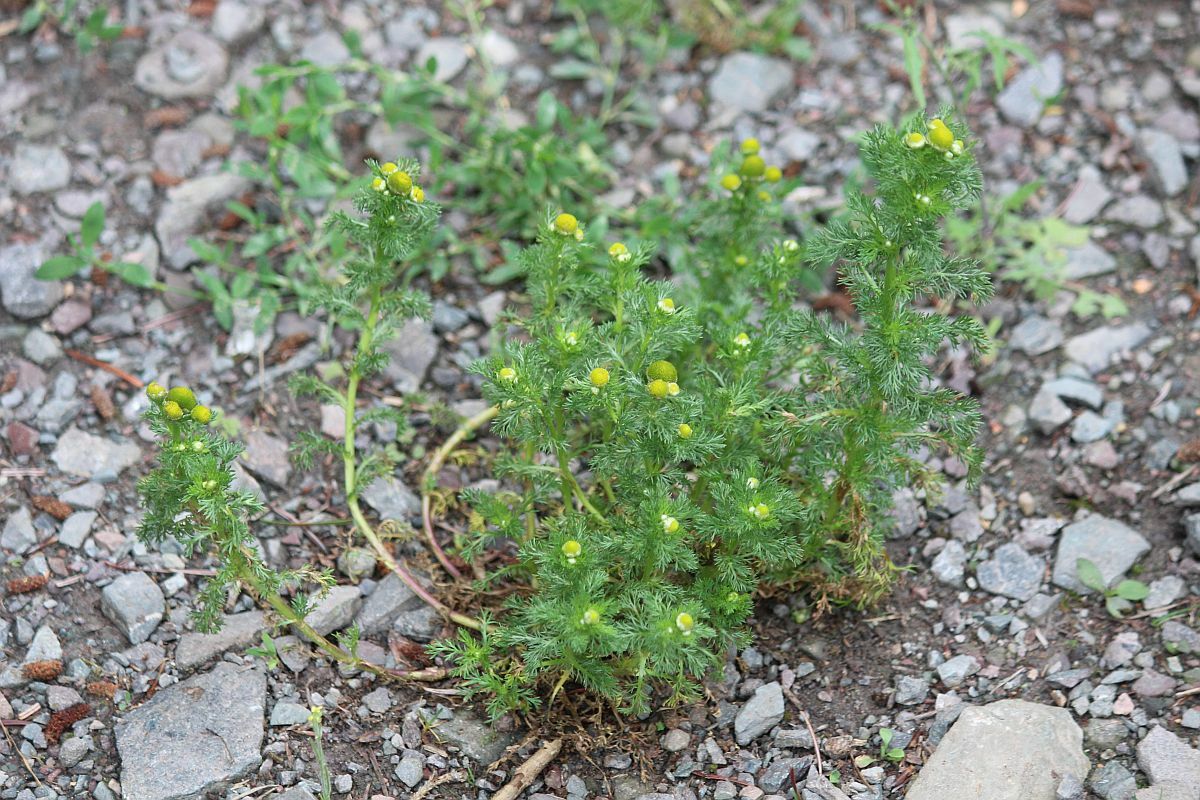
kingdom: Plantae
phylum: Tracheophyta
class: Magnoliopsida
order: Asterales
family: Asteraceae
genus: Matricaria
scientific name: Matricaria discoidea
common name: Disc mayweed
